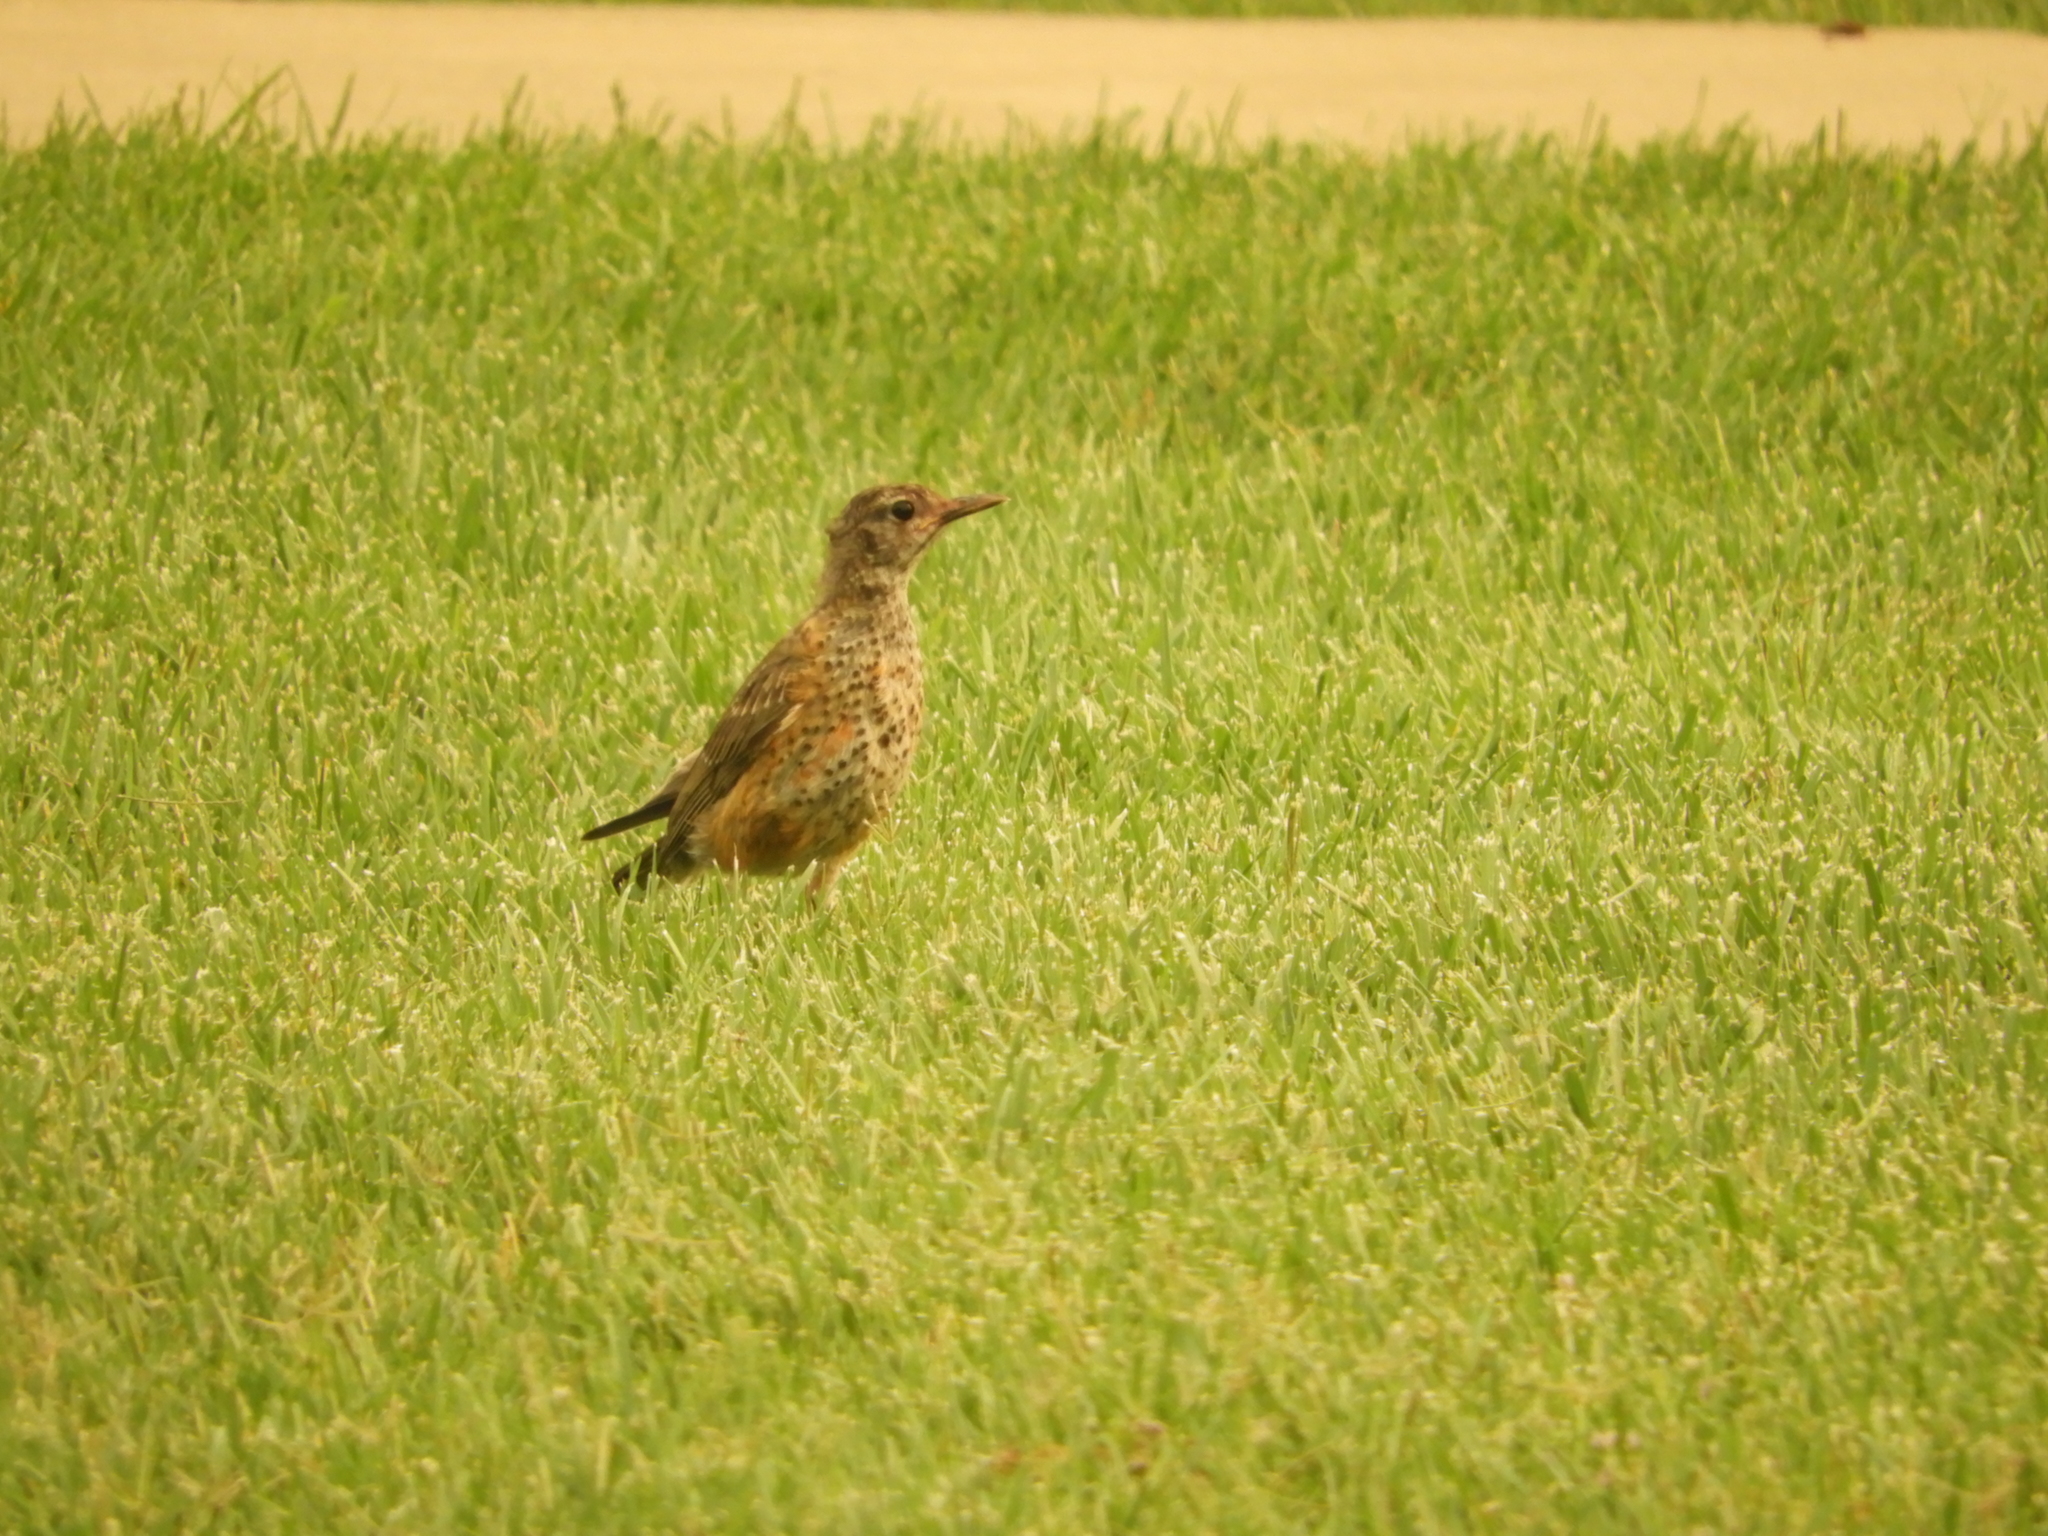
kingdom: Animalia
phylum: Chordata
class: Aves
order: Passeriformes
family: Turdidae
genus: Turdus
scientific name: Turdus migratorius
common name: American robin
